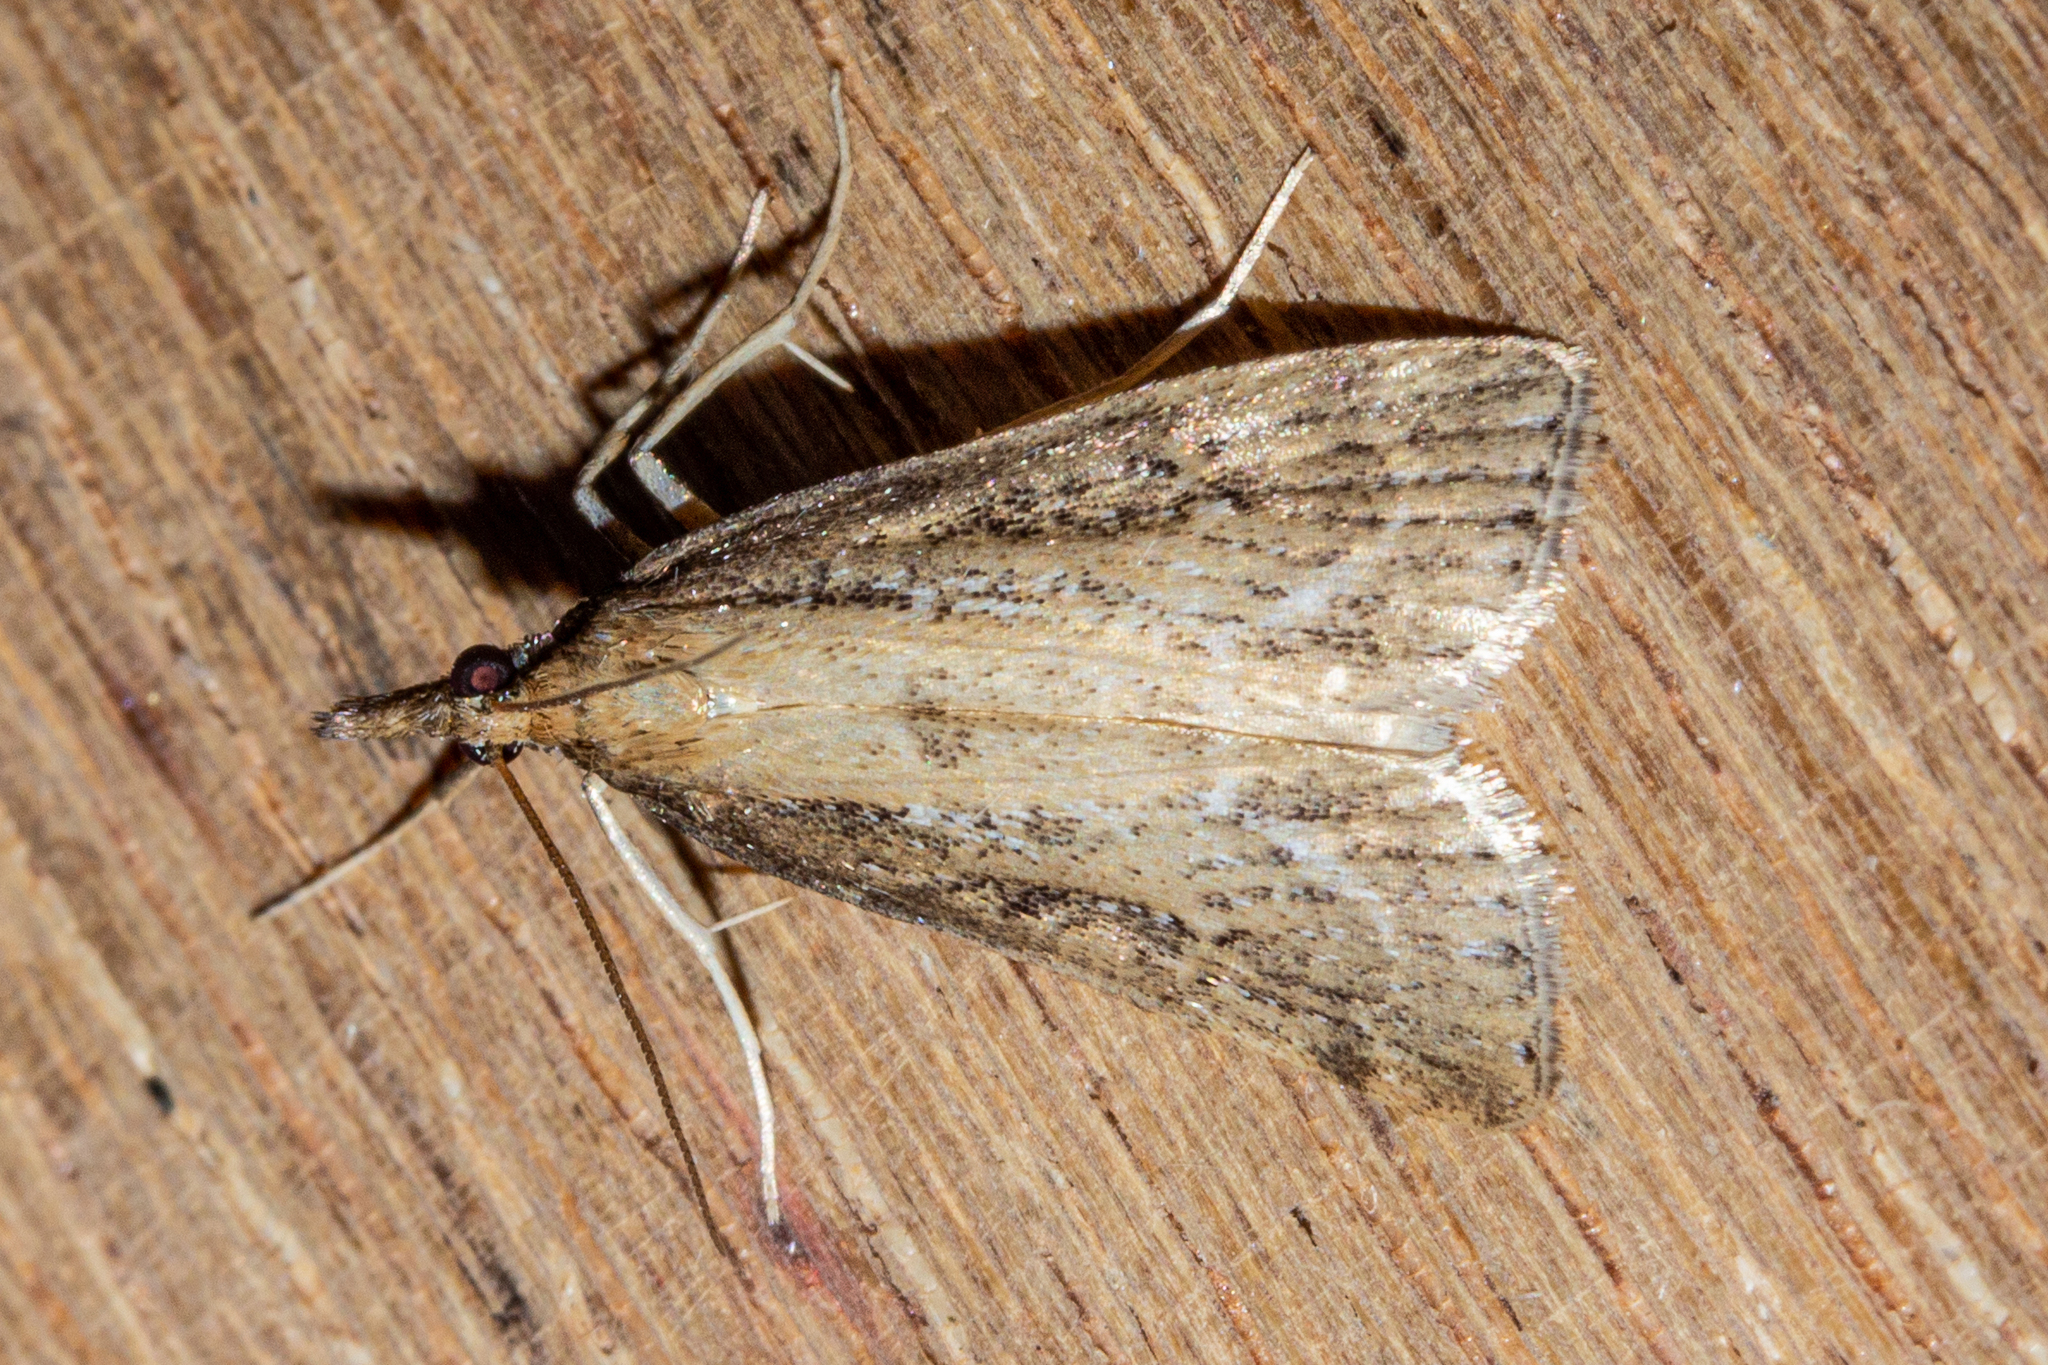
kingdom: Animalia
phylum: Arthropoda
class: Insecta
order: Lepidoptera
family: Crambidae
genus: Eudonia
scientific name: Eudonia octophora
